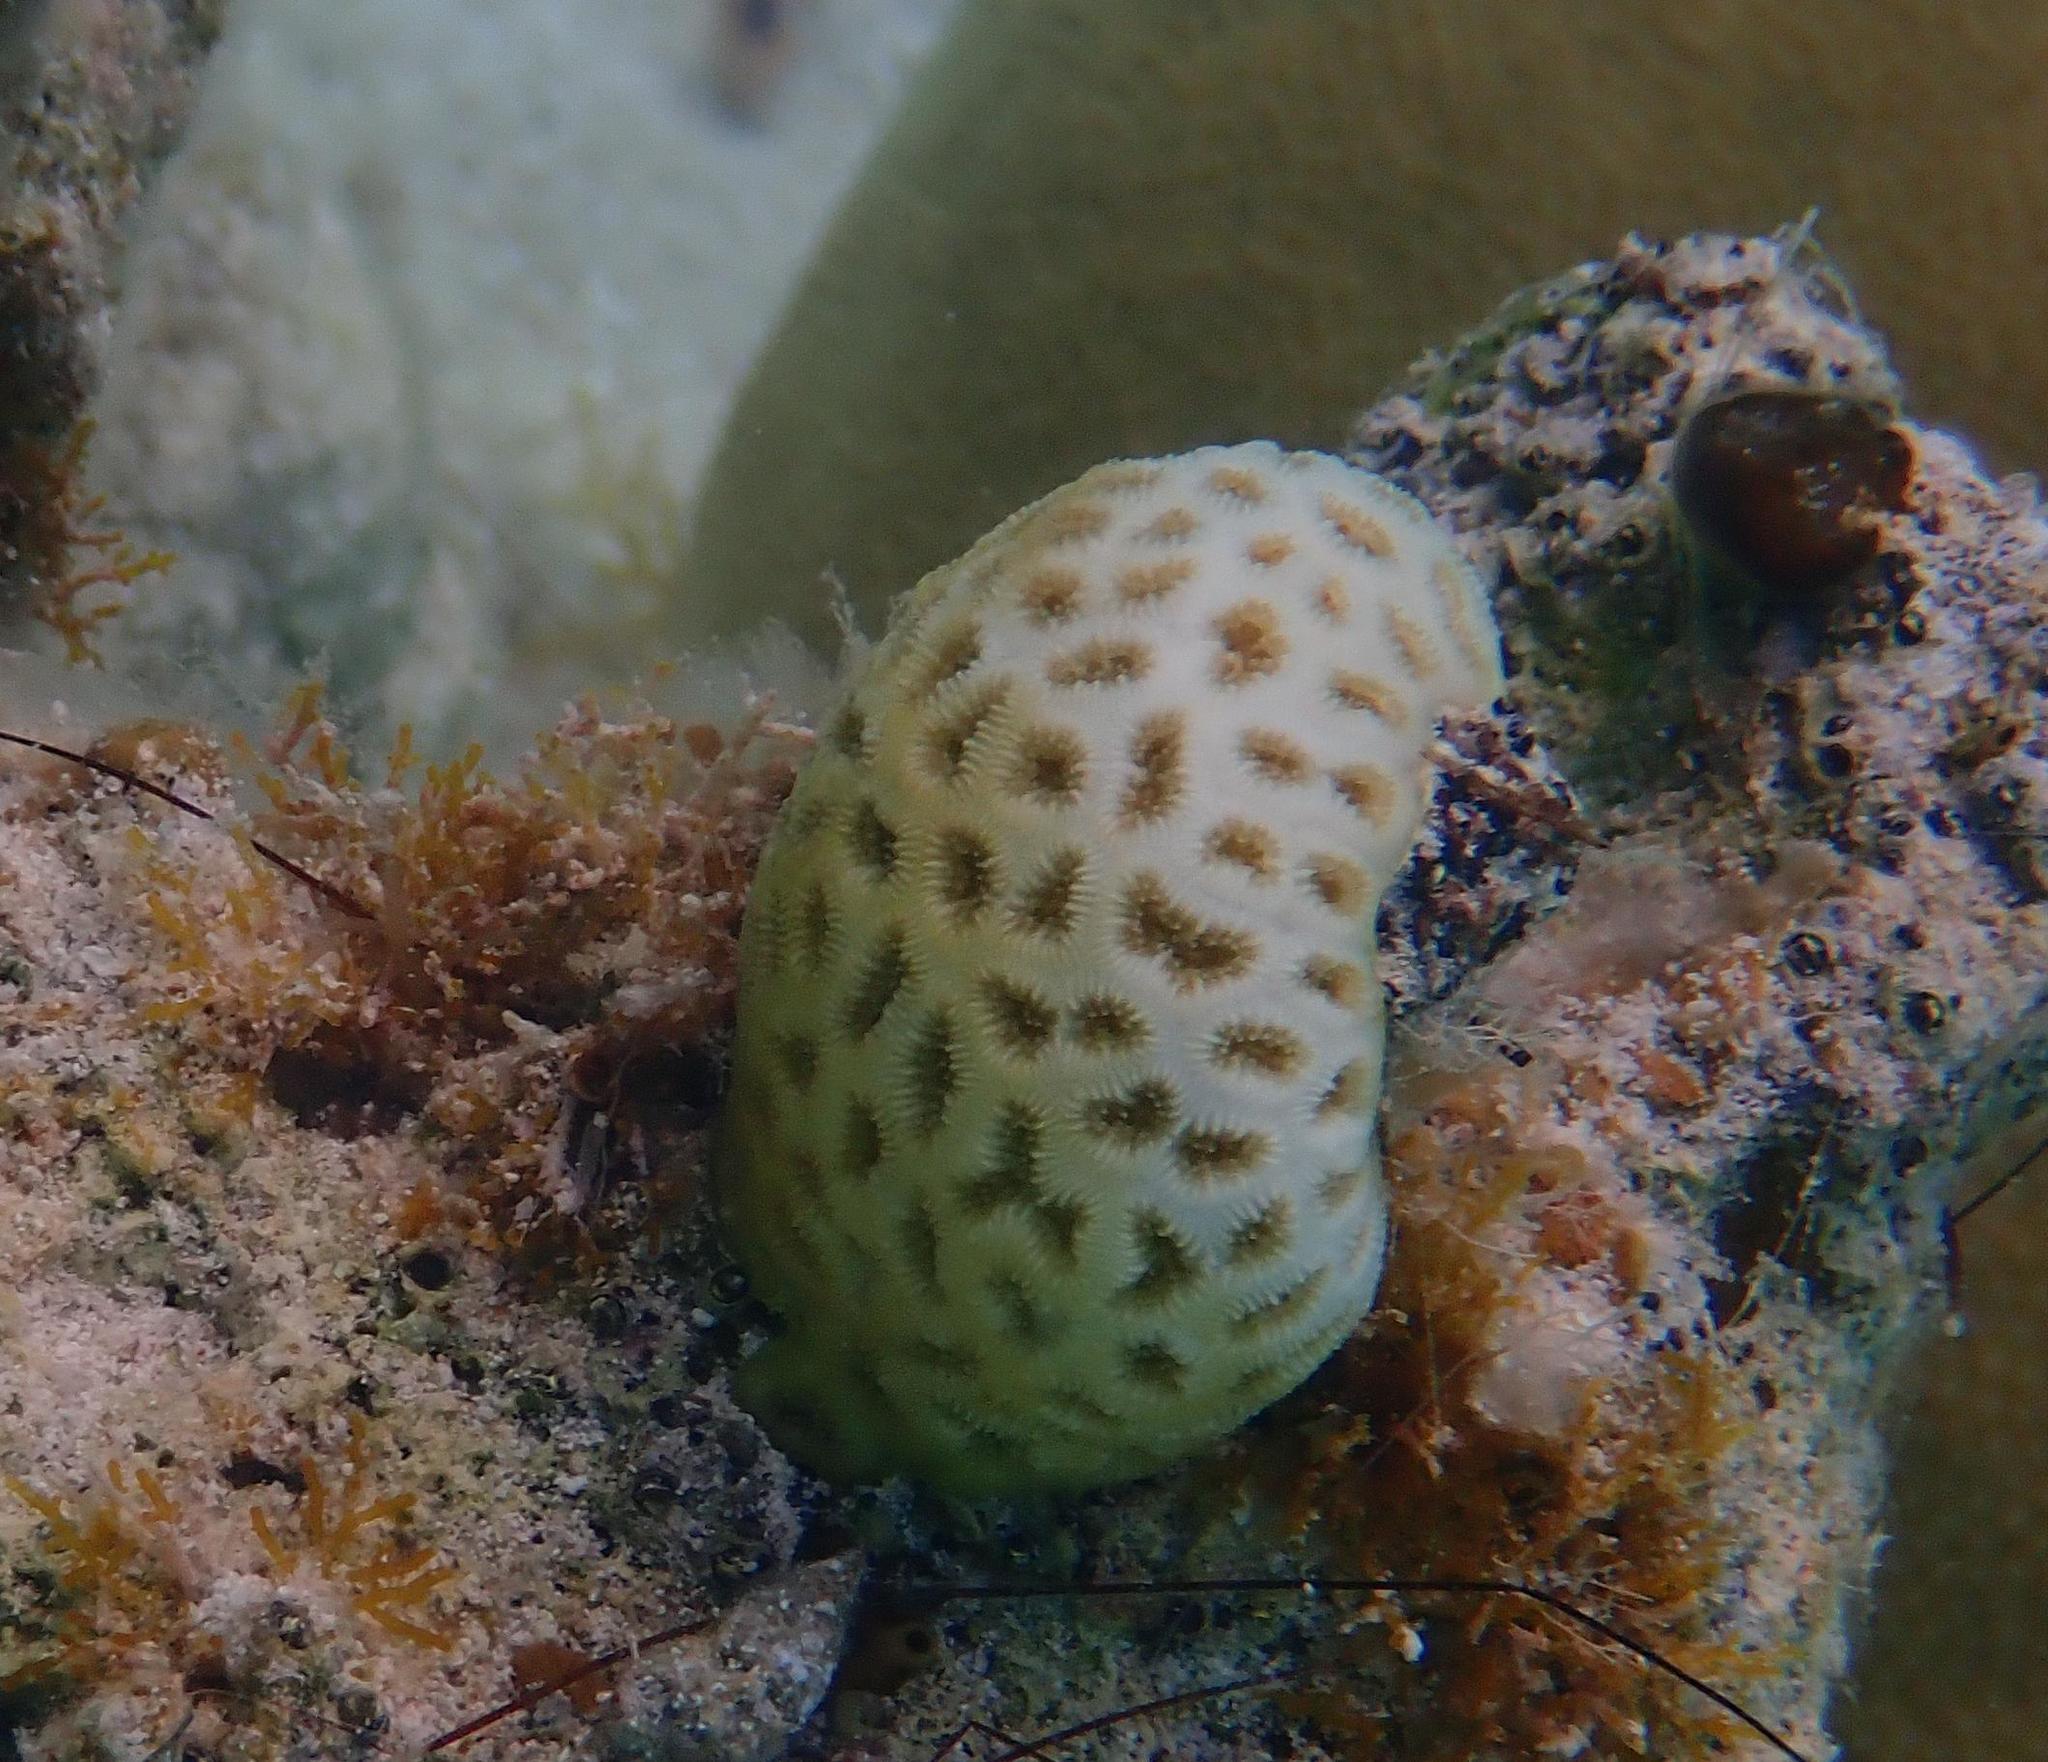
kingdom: Animalia
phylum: Cnidaria
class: Anthozoa
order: Scleractinia
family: Faviidae
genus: Favia
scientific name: Favia fragum
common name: Golfball coral
